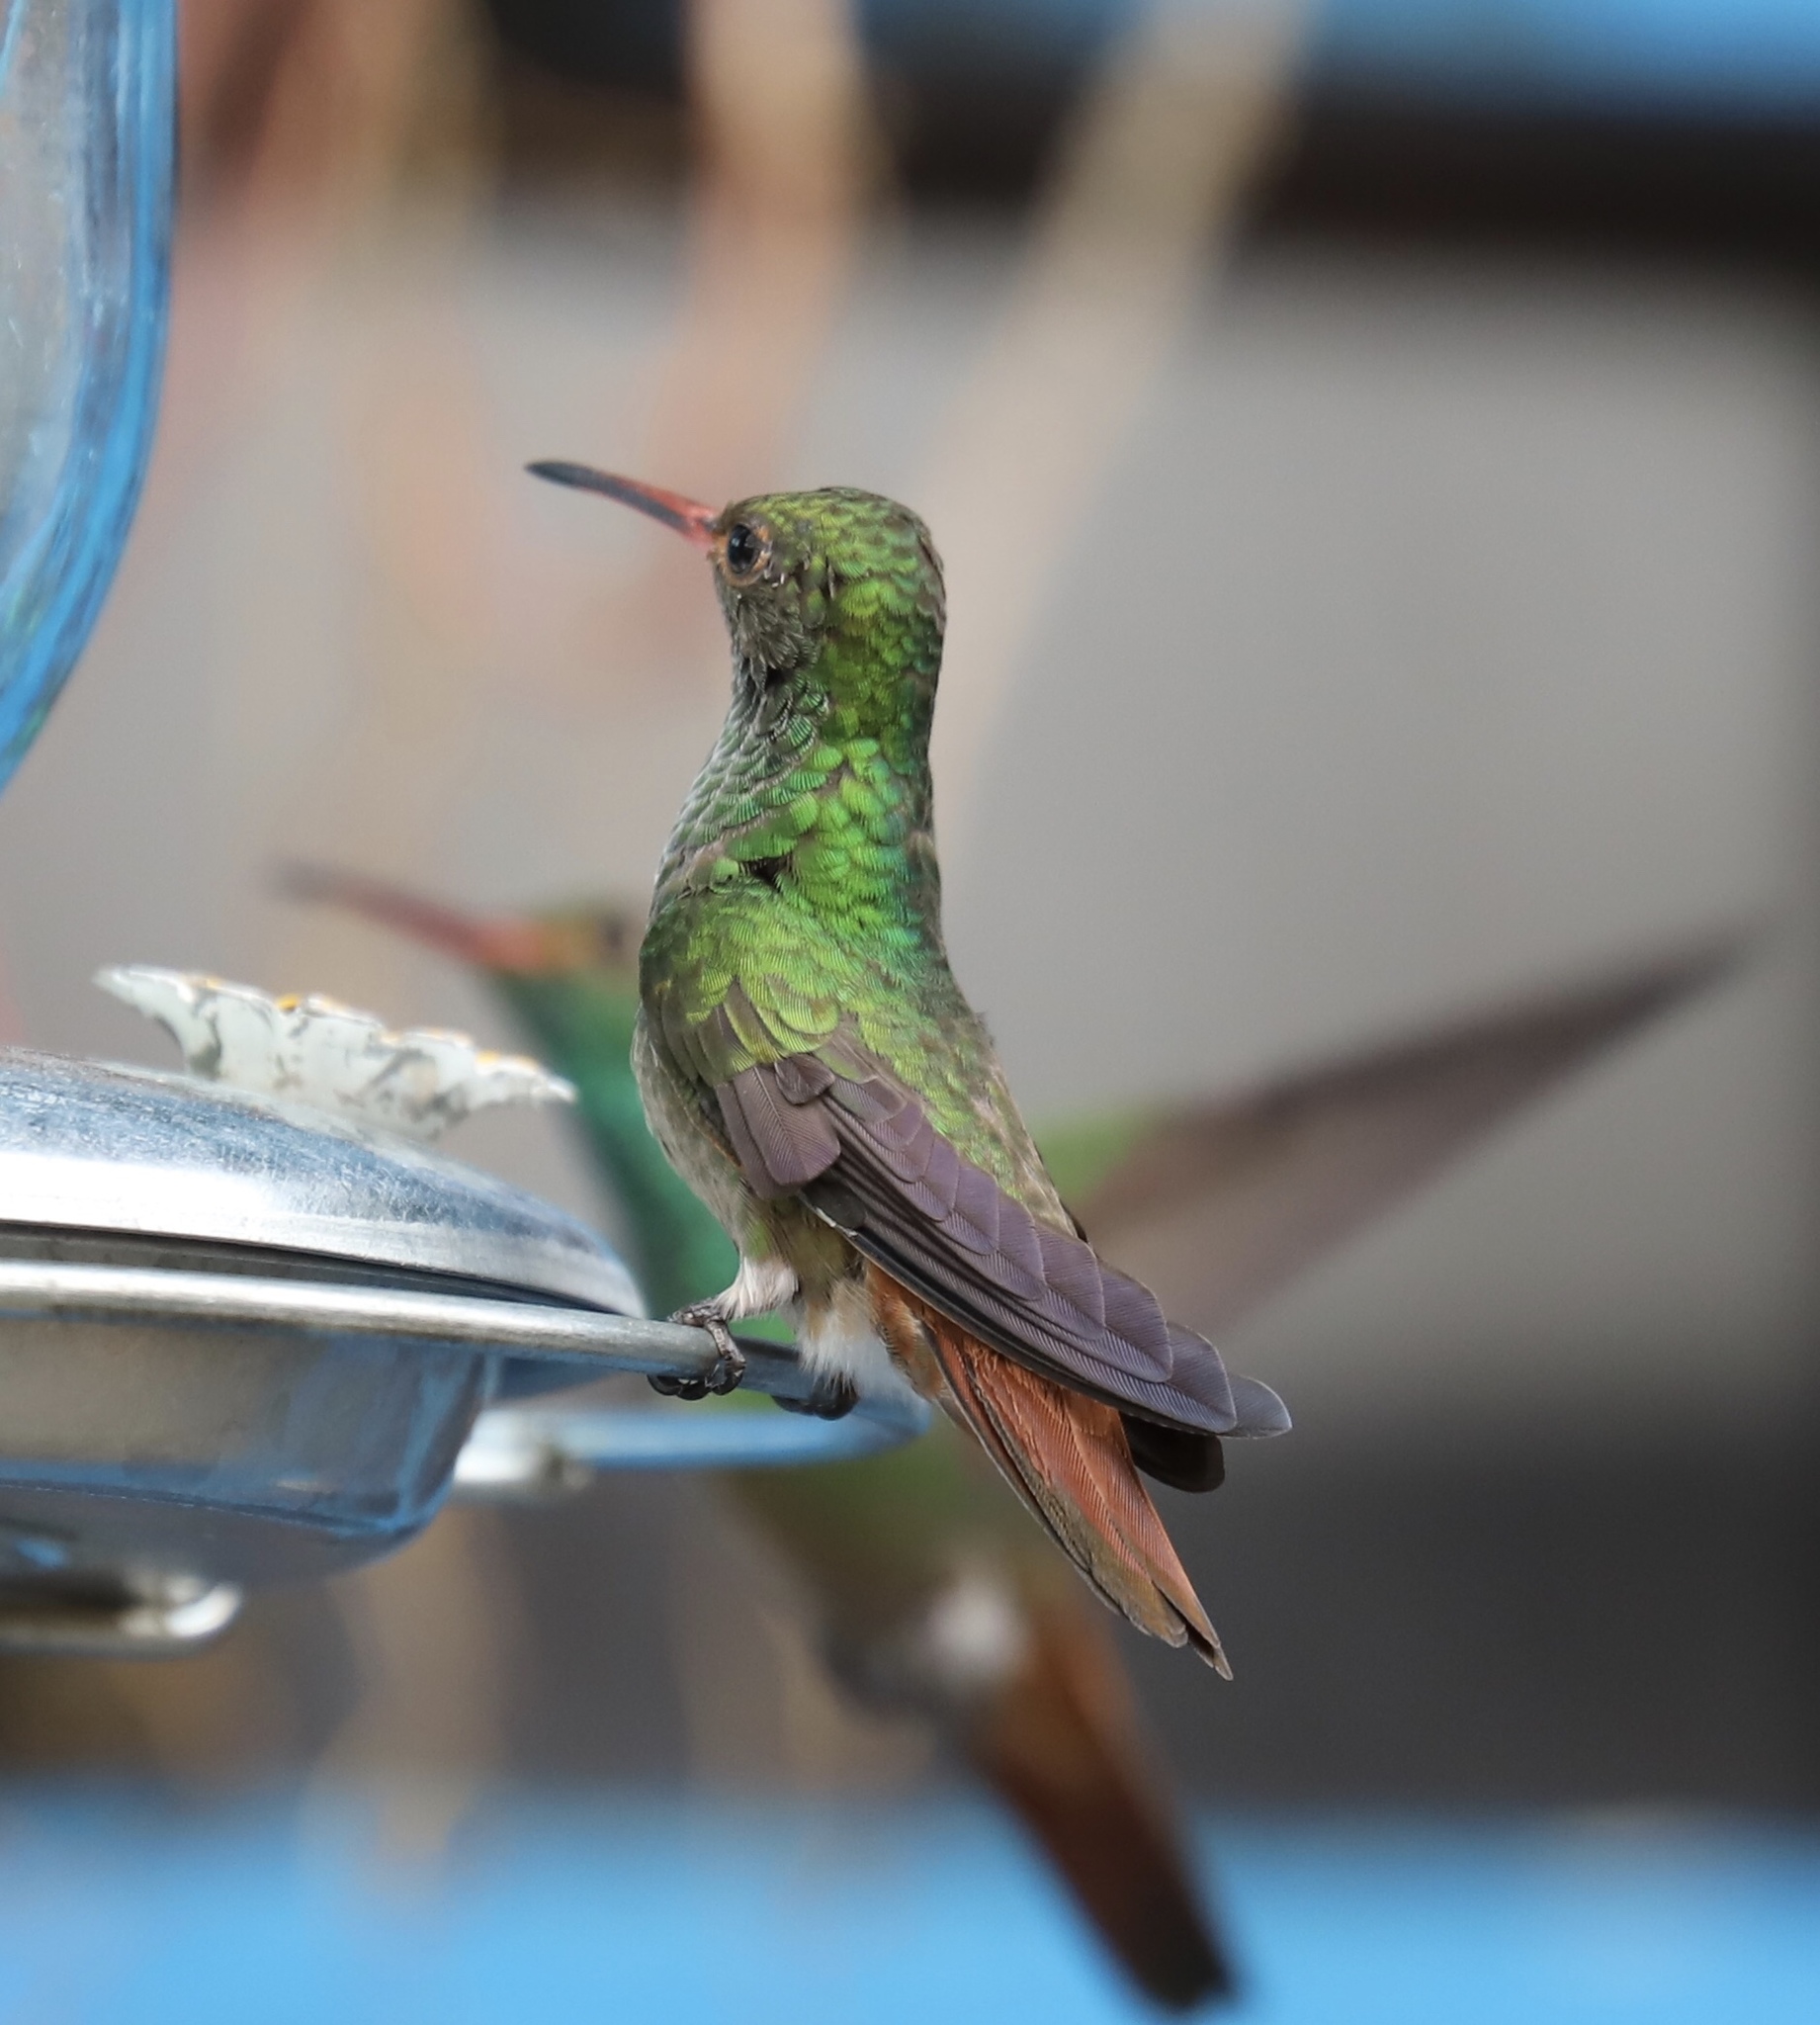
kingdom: Animalia
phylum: Chordata
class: Aves
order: Apodiformes
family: Trochilidae
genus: Amazilia
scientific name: Amazilia tzacatl
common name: Rufous-tailed hummingbird
